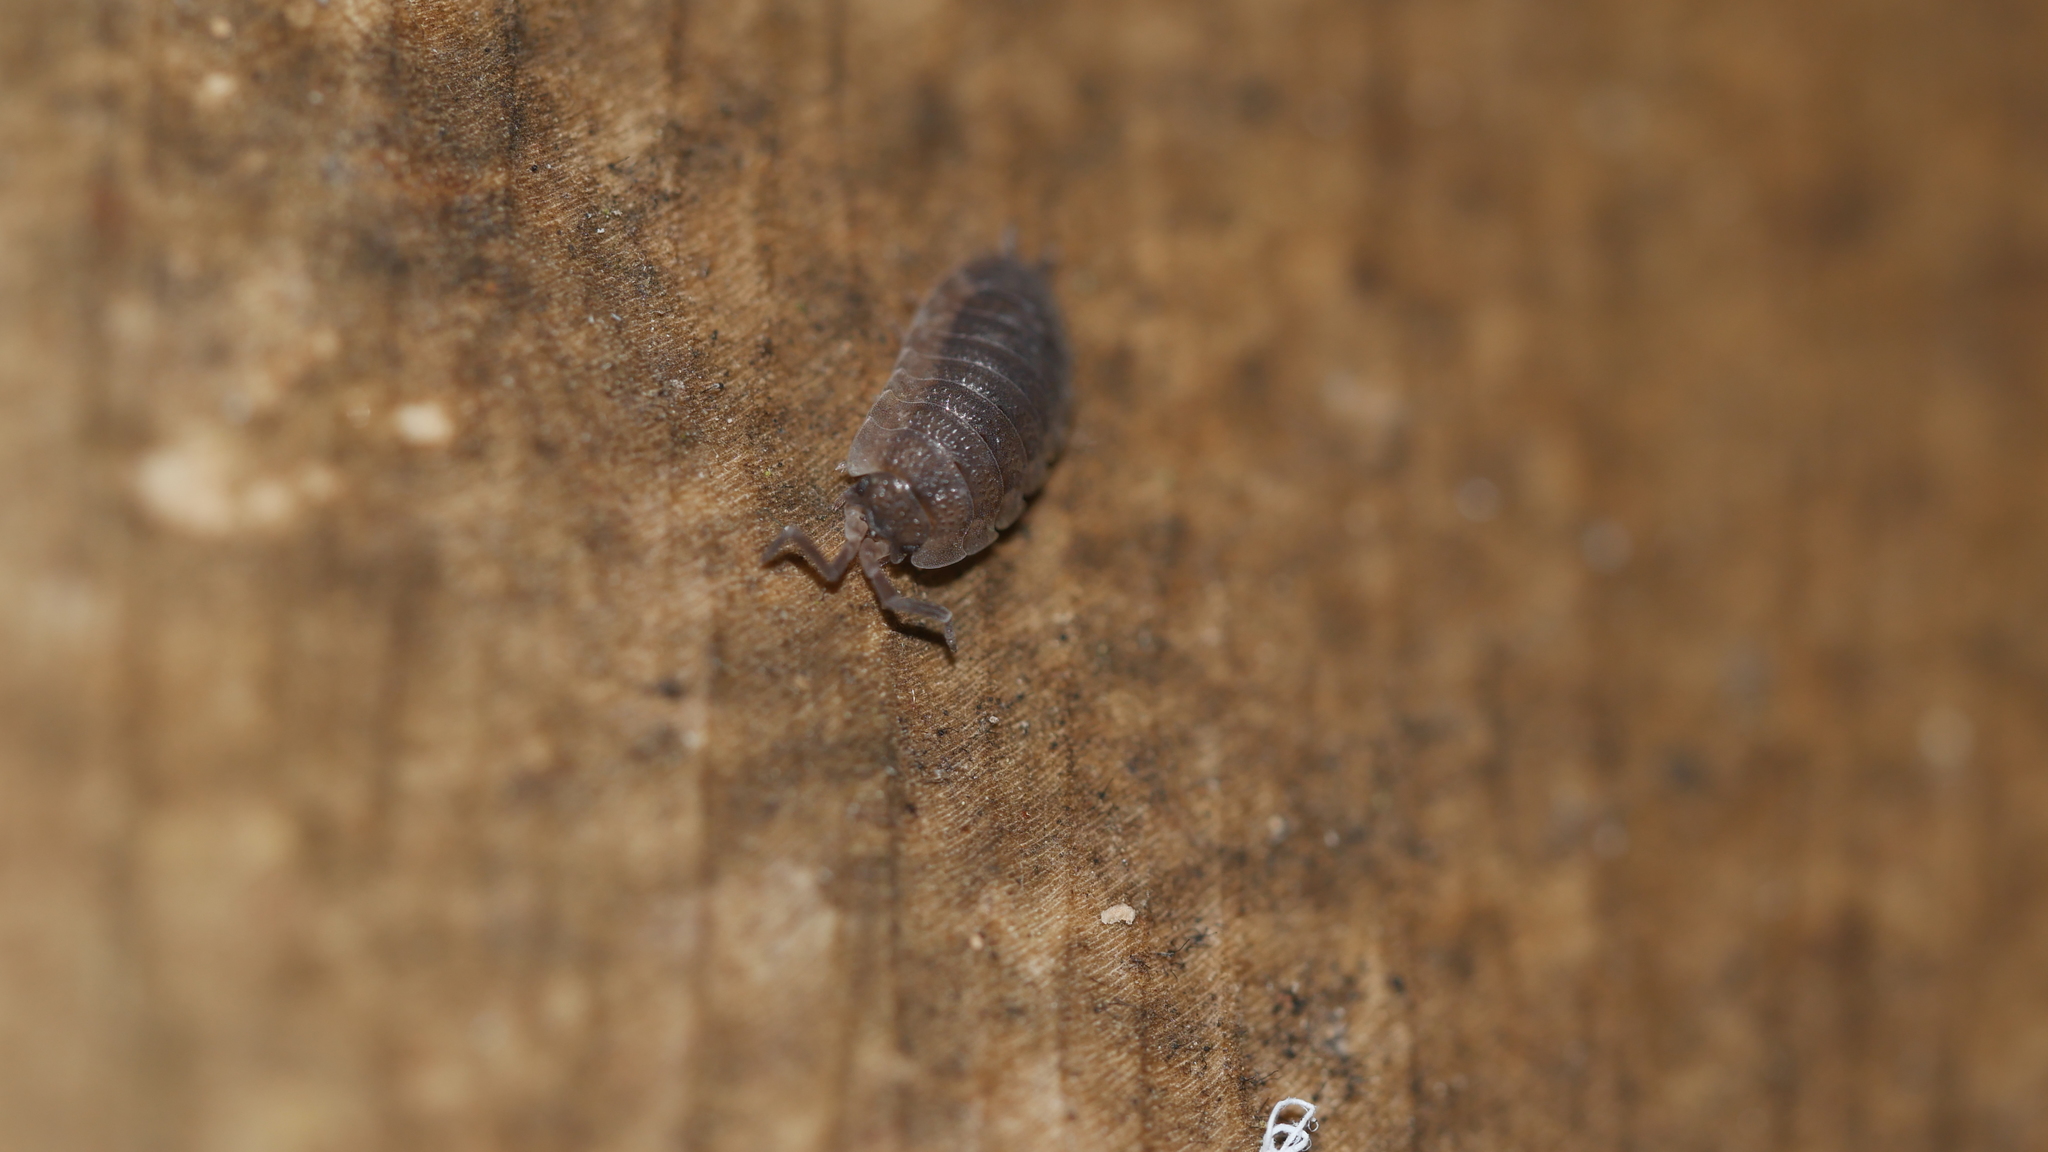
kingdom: Animalia
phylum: Arthropoda
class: Malacostraca
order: Isopoda
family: Porcellionidae
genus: Porcellio
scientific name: Porcellio scaber
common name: Common rough woodlouse
